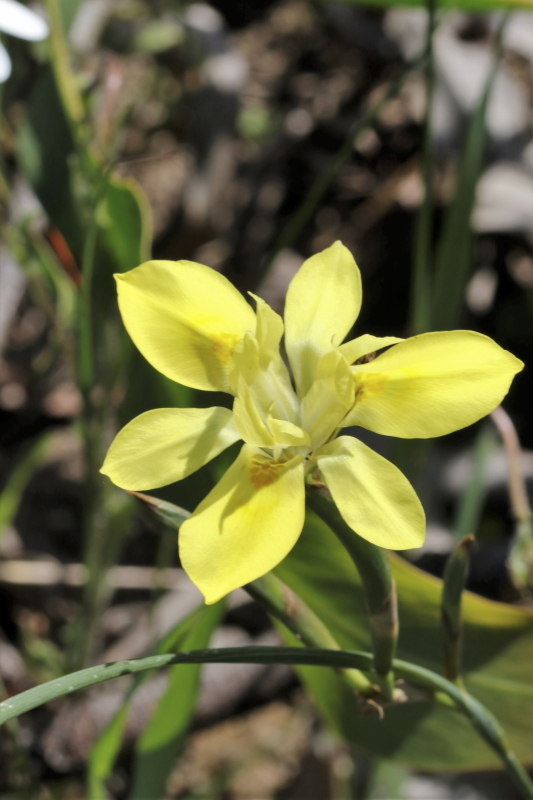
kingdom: Plantae
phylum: Tracheophyta
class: Liliopsida
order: Asparagales
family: Iridaceae
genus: Moraea
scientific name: Moraea fugax
